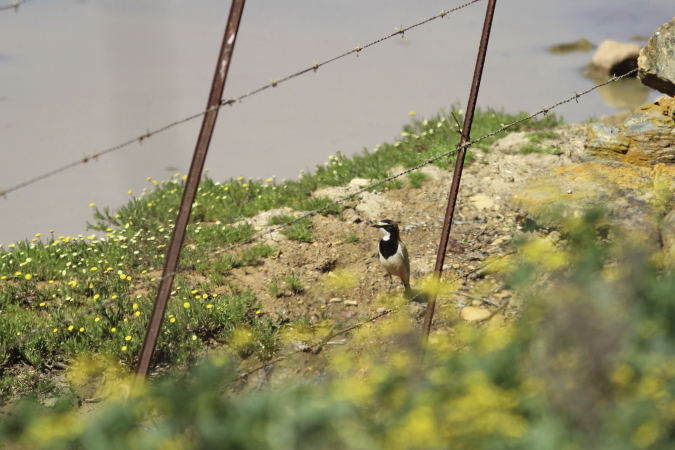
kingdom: Animalia
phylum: Chordata
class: Aves
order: Passeriformes
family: Muscicapidae
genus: Oenanthe
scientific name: Oenanthe pileata
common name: Capped wheatear
